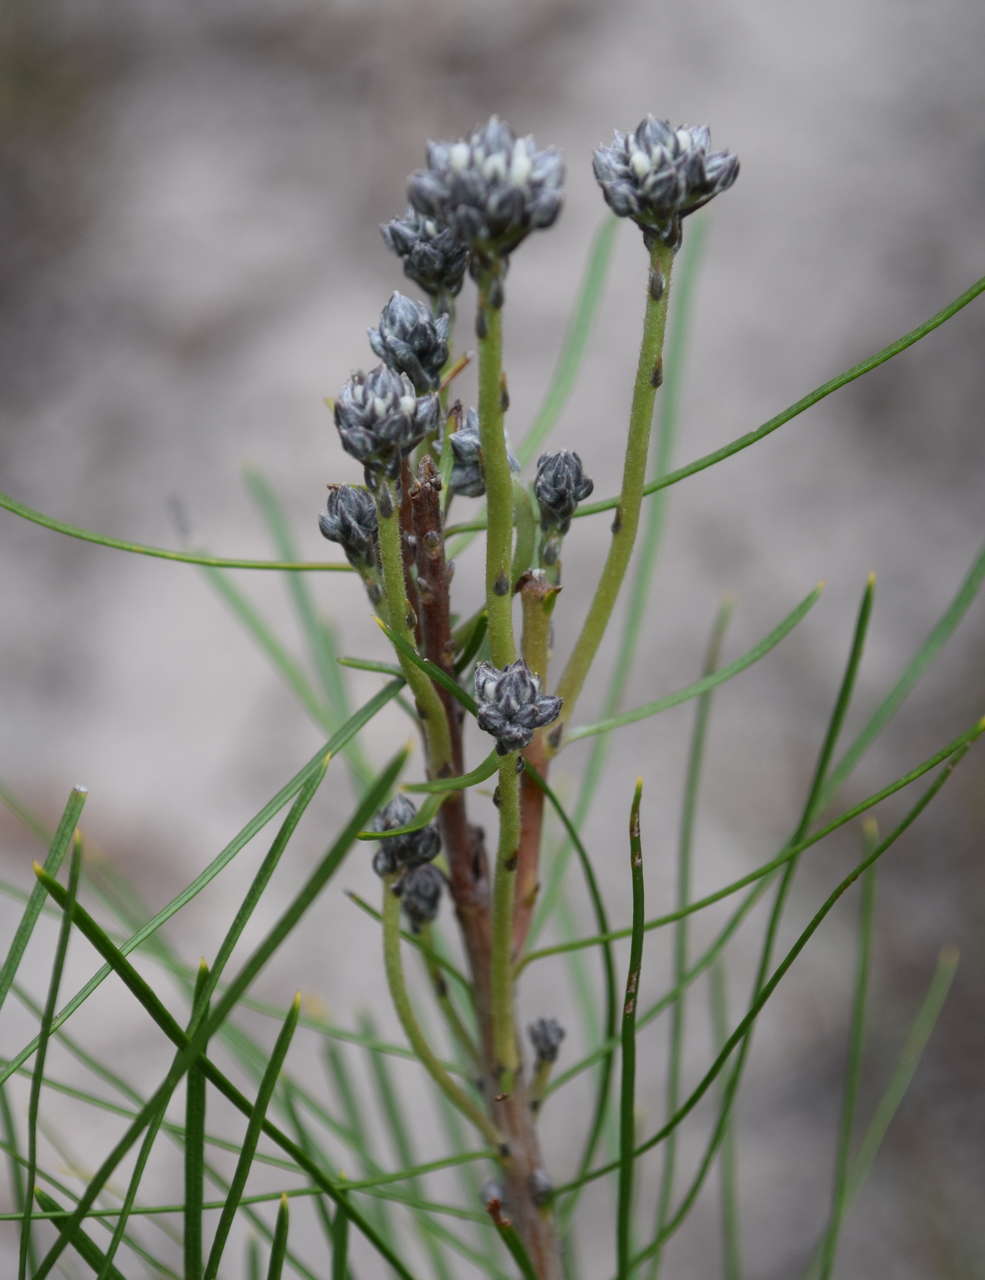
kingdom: Plantae
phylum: Tracheophyta
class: Magnoliopsida
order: Proteales
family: Proteaceae
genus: Conospermum
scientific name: Conospermum mitchellii
